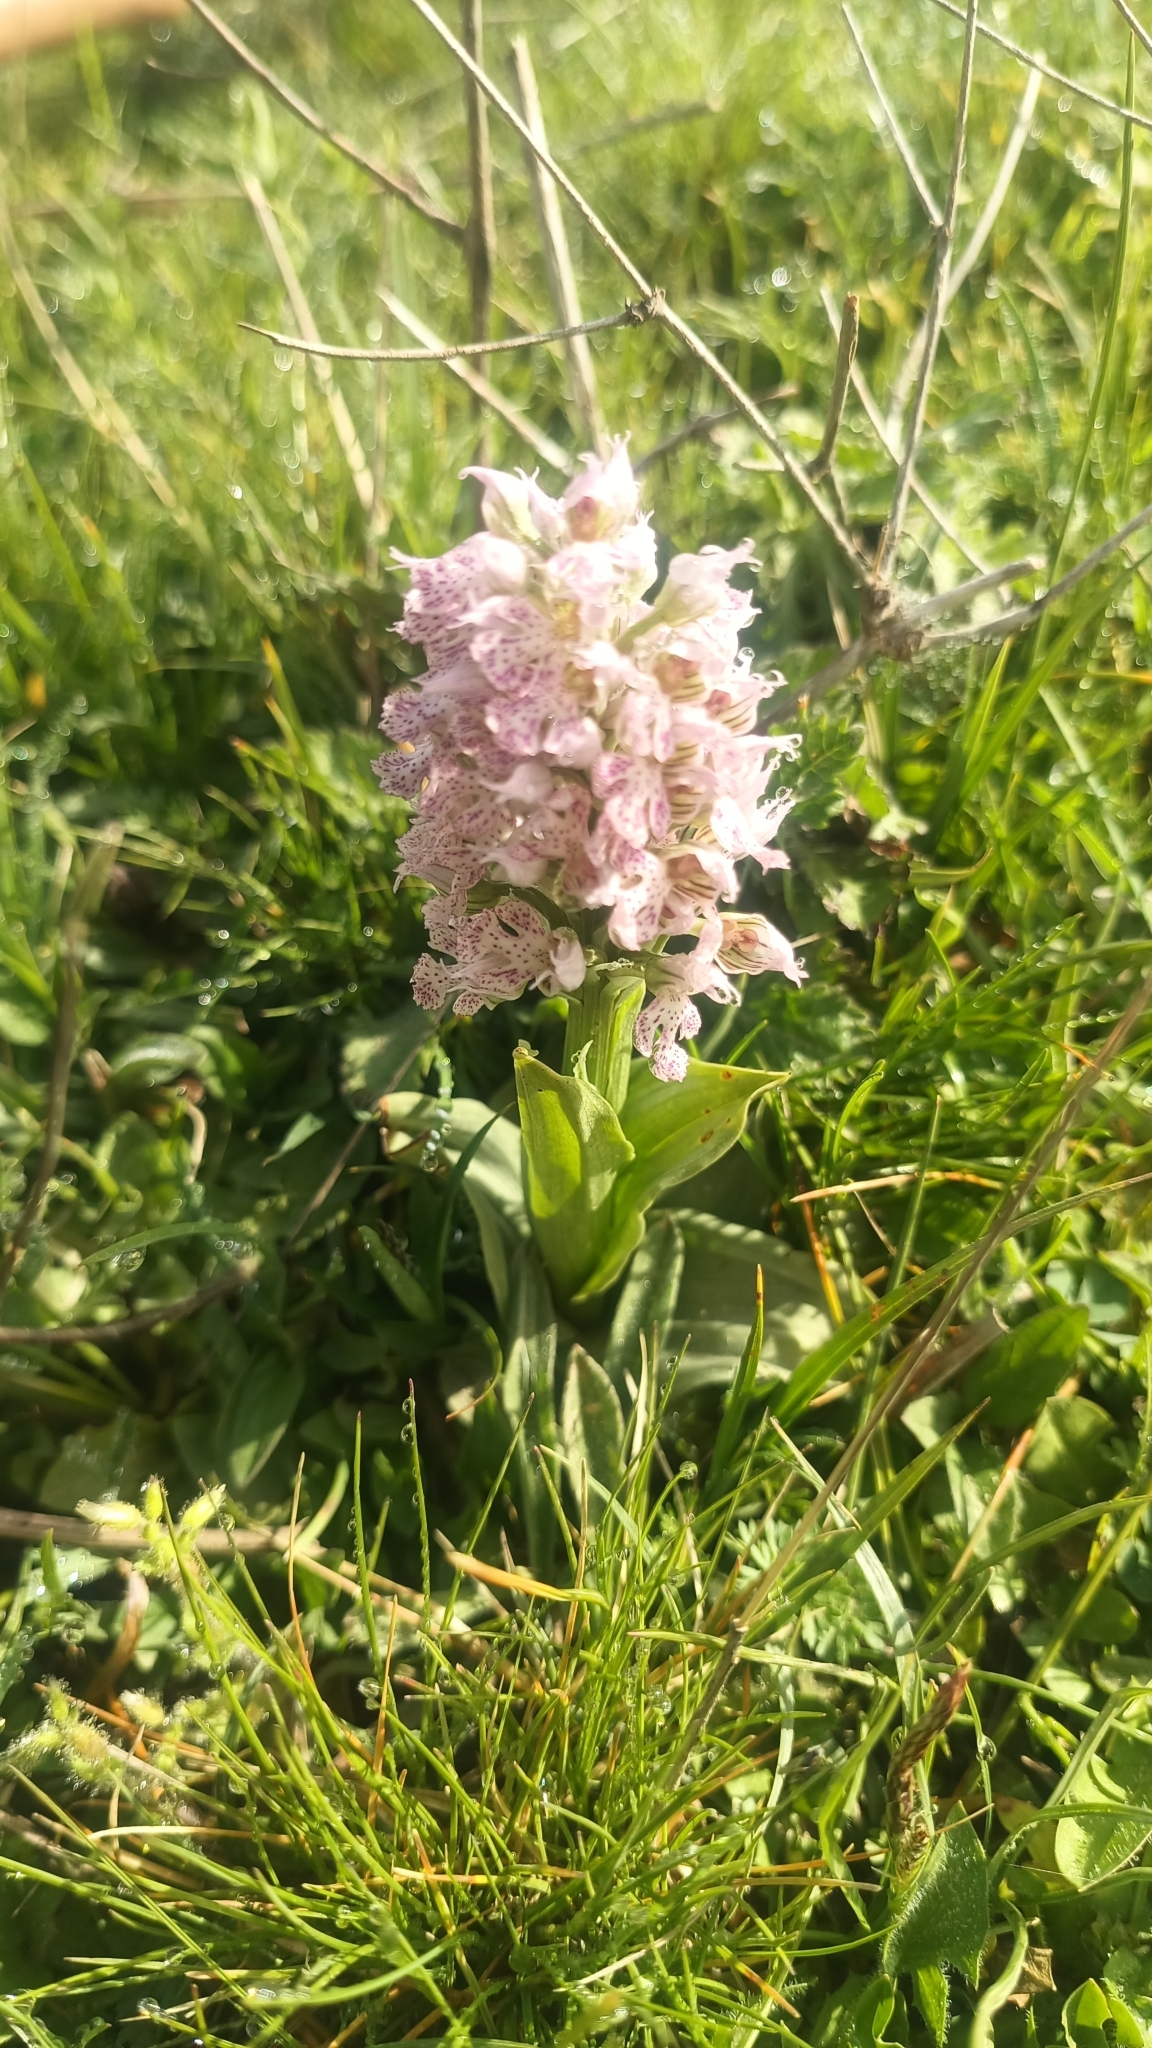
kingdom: Plantae
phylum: Tracheophyta
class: Liliopsida
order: Asparagales
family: Orchidaceae
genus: Neotinea
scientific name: Neotinea lactea
